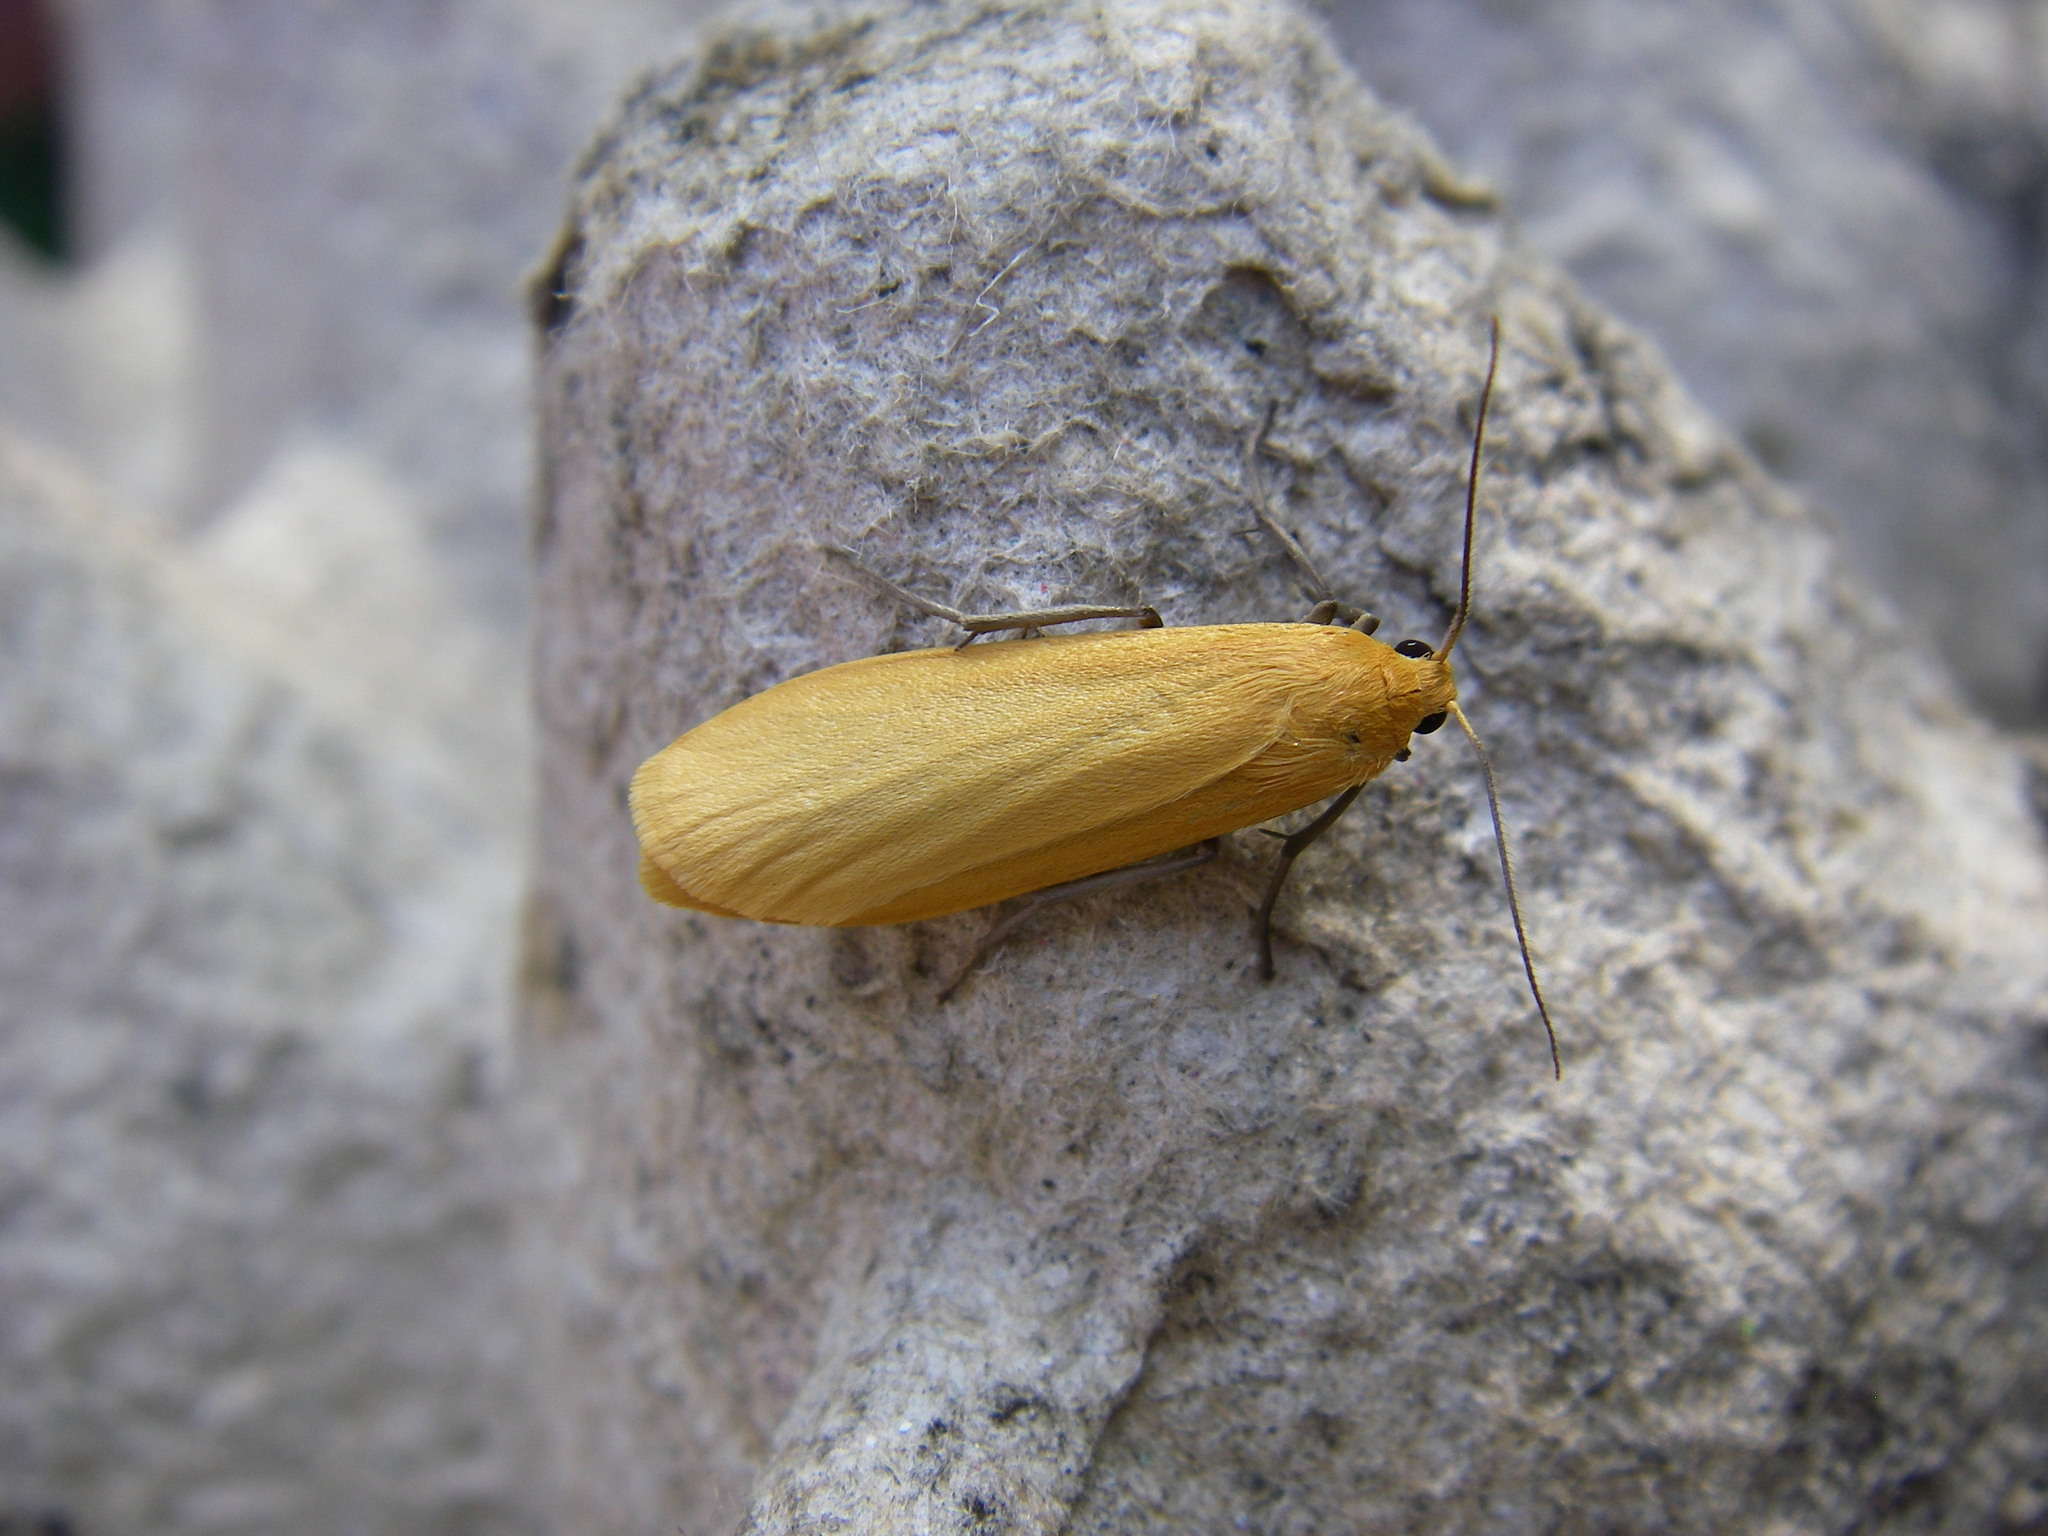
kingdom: Animalia
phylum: Arthropoda
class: Insecta
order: Lepidoptera
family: Erebidae
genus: Wittia
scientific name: Wittia sororcula
